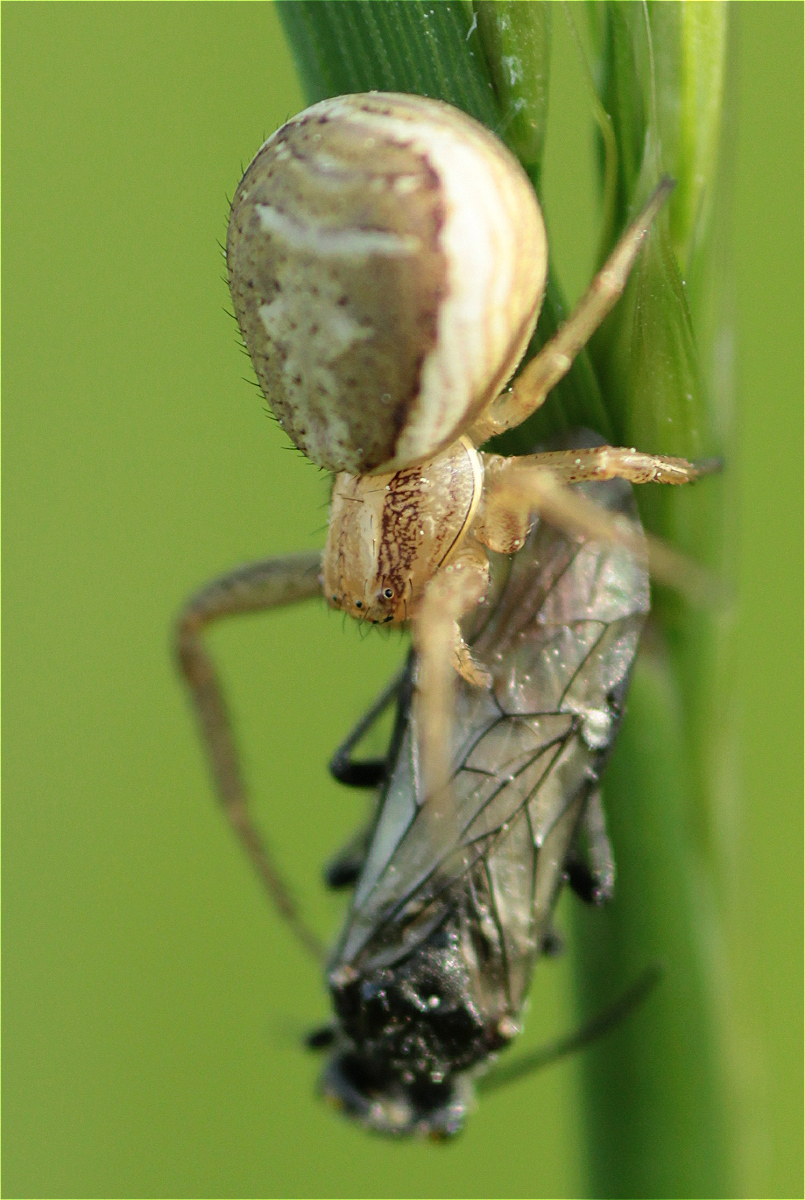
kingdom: Animalia
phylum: Arthropoda
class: Arachnida
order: Araneae
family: Thomisidae
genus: Xysticus
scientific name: Xysticus ulmi
